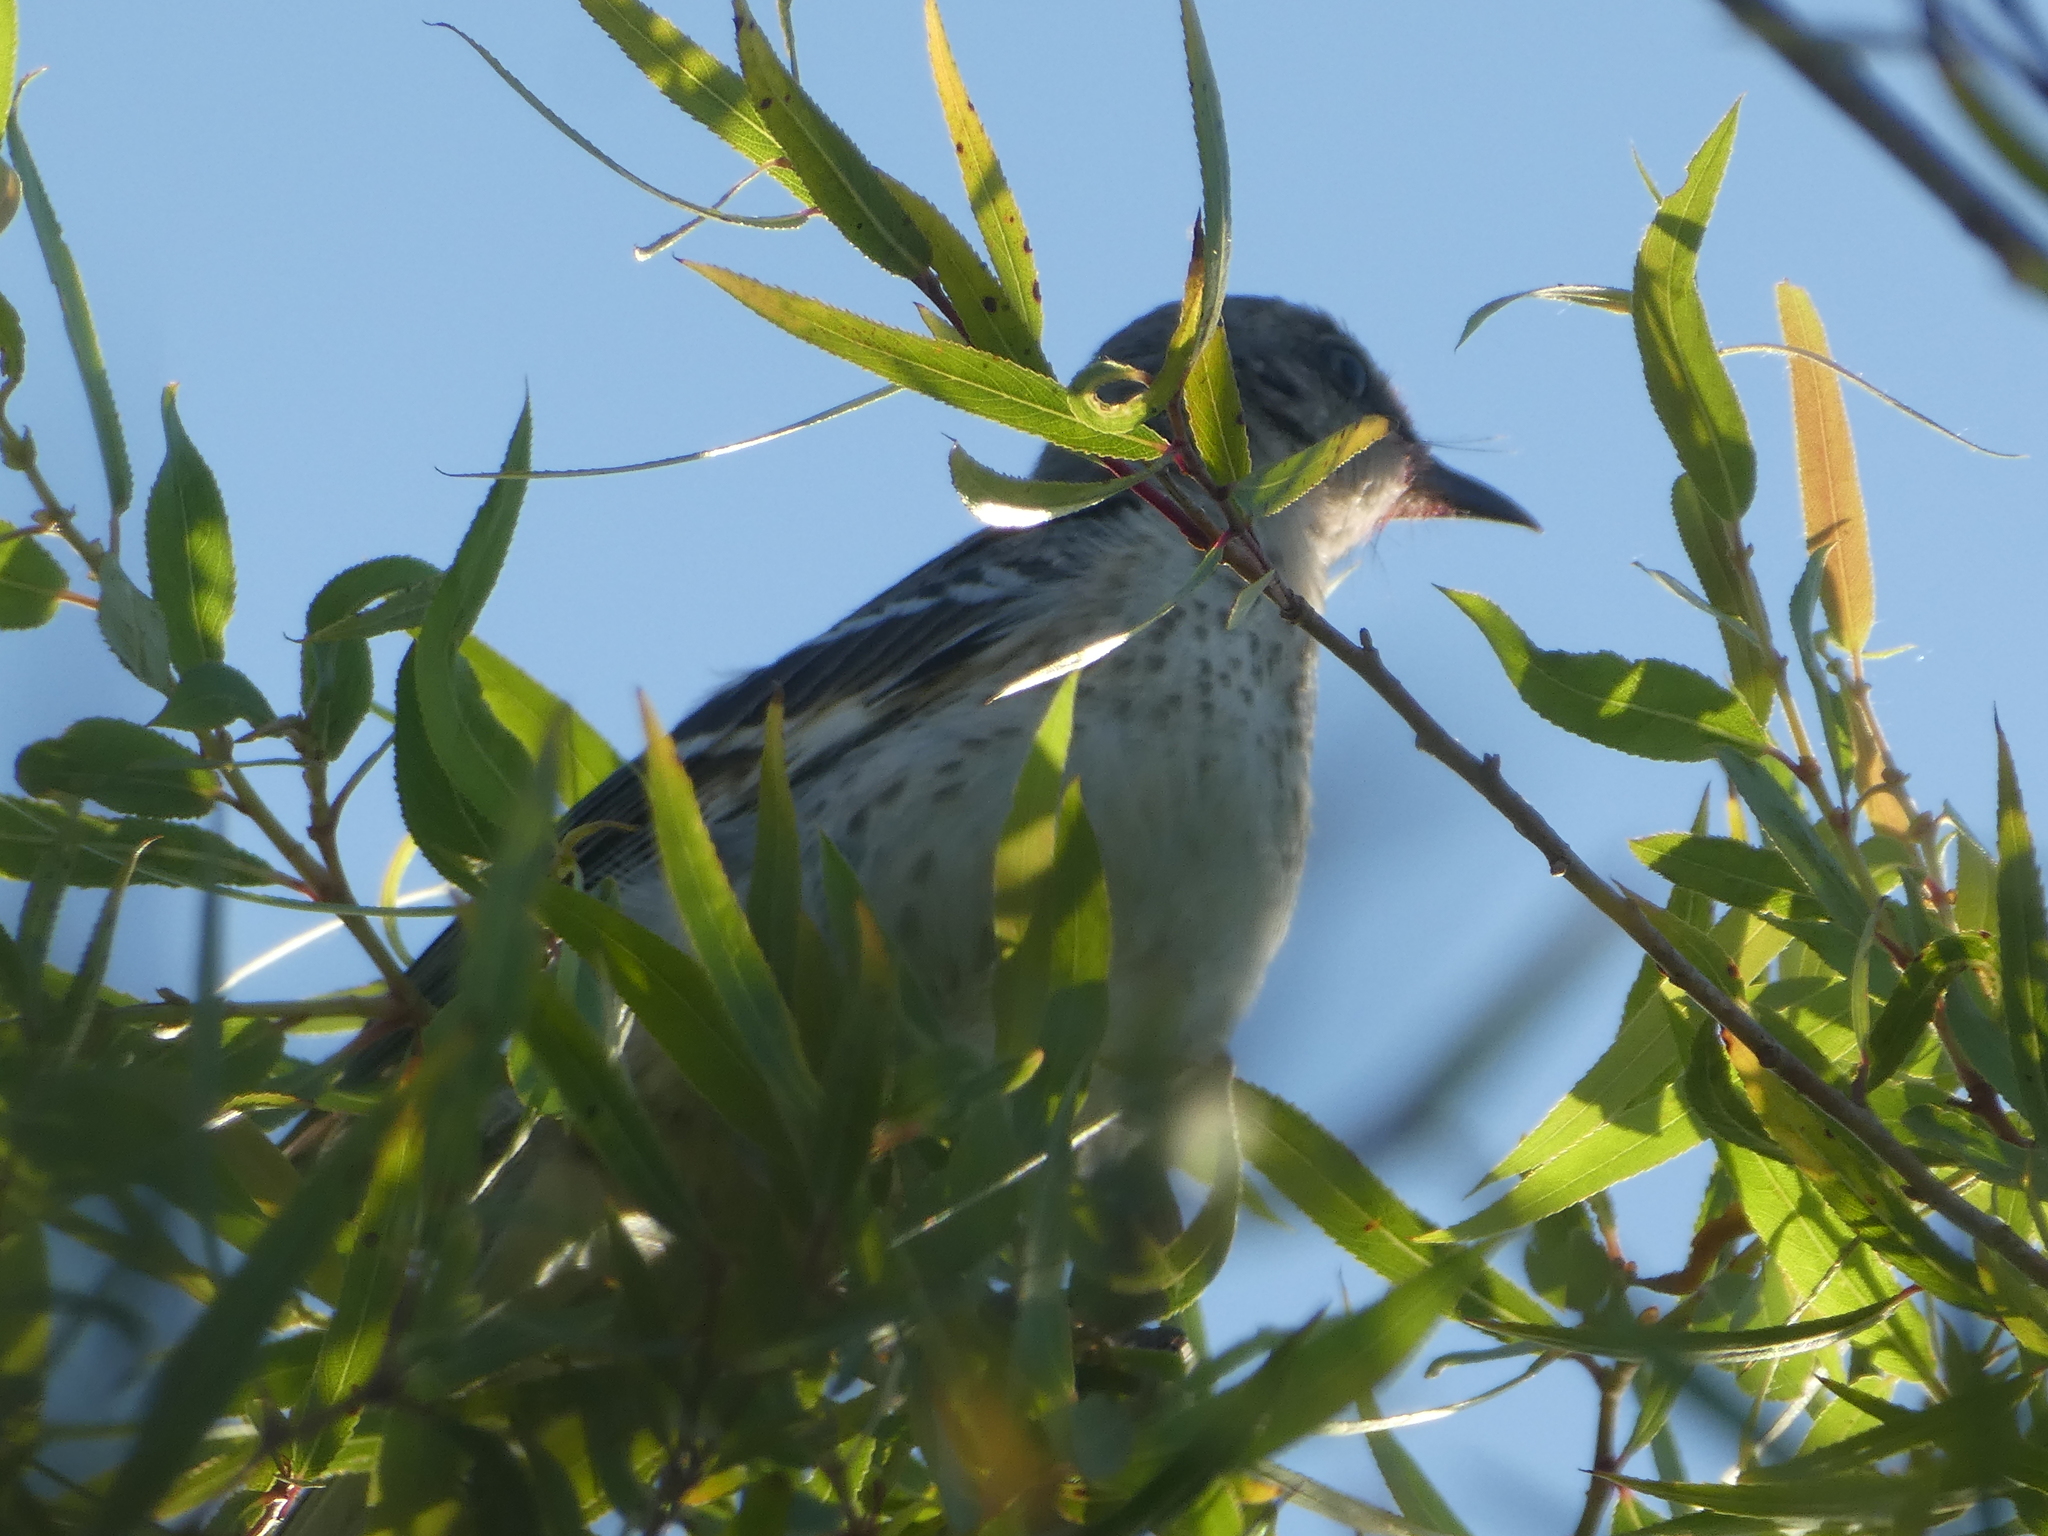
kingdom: Animalia
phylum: Chordata
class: Aves
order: Passeriformes
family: Mimidae
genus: Mimus
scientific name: Mimus polyglottos
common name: Northern mockingbird
